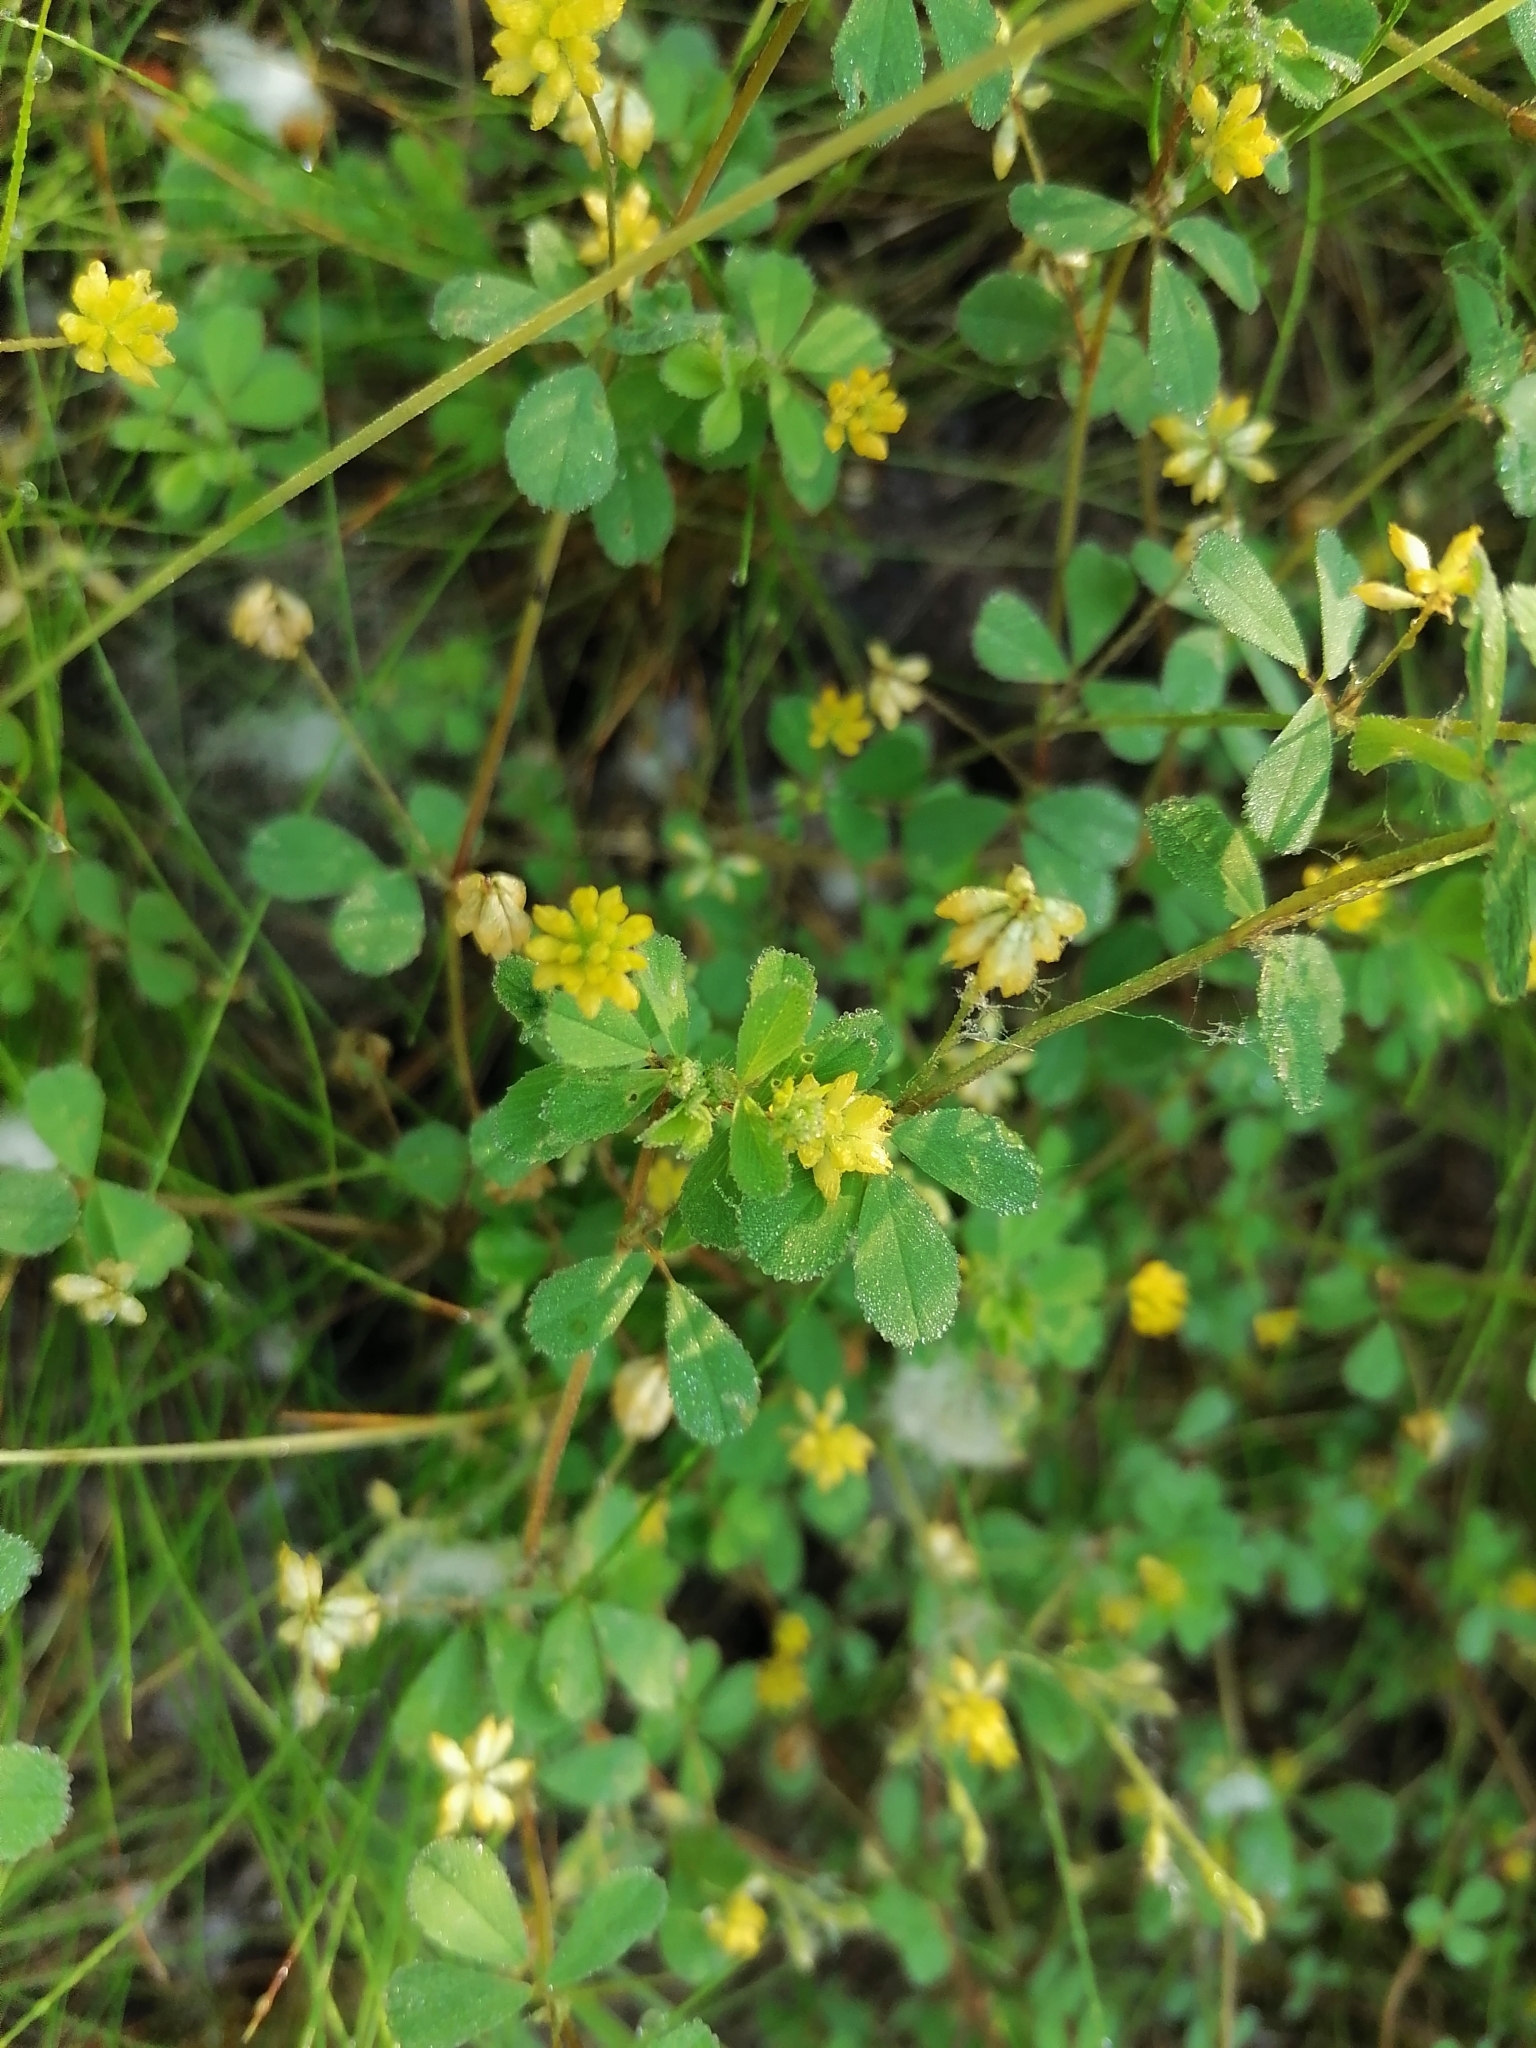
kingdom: Plantae
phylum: Tracheophyta
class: Magnoliopsida
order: Fabales
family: Fabaceae
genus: Trifolium
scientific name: Trifolium dubium
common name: Suckling clover
